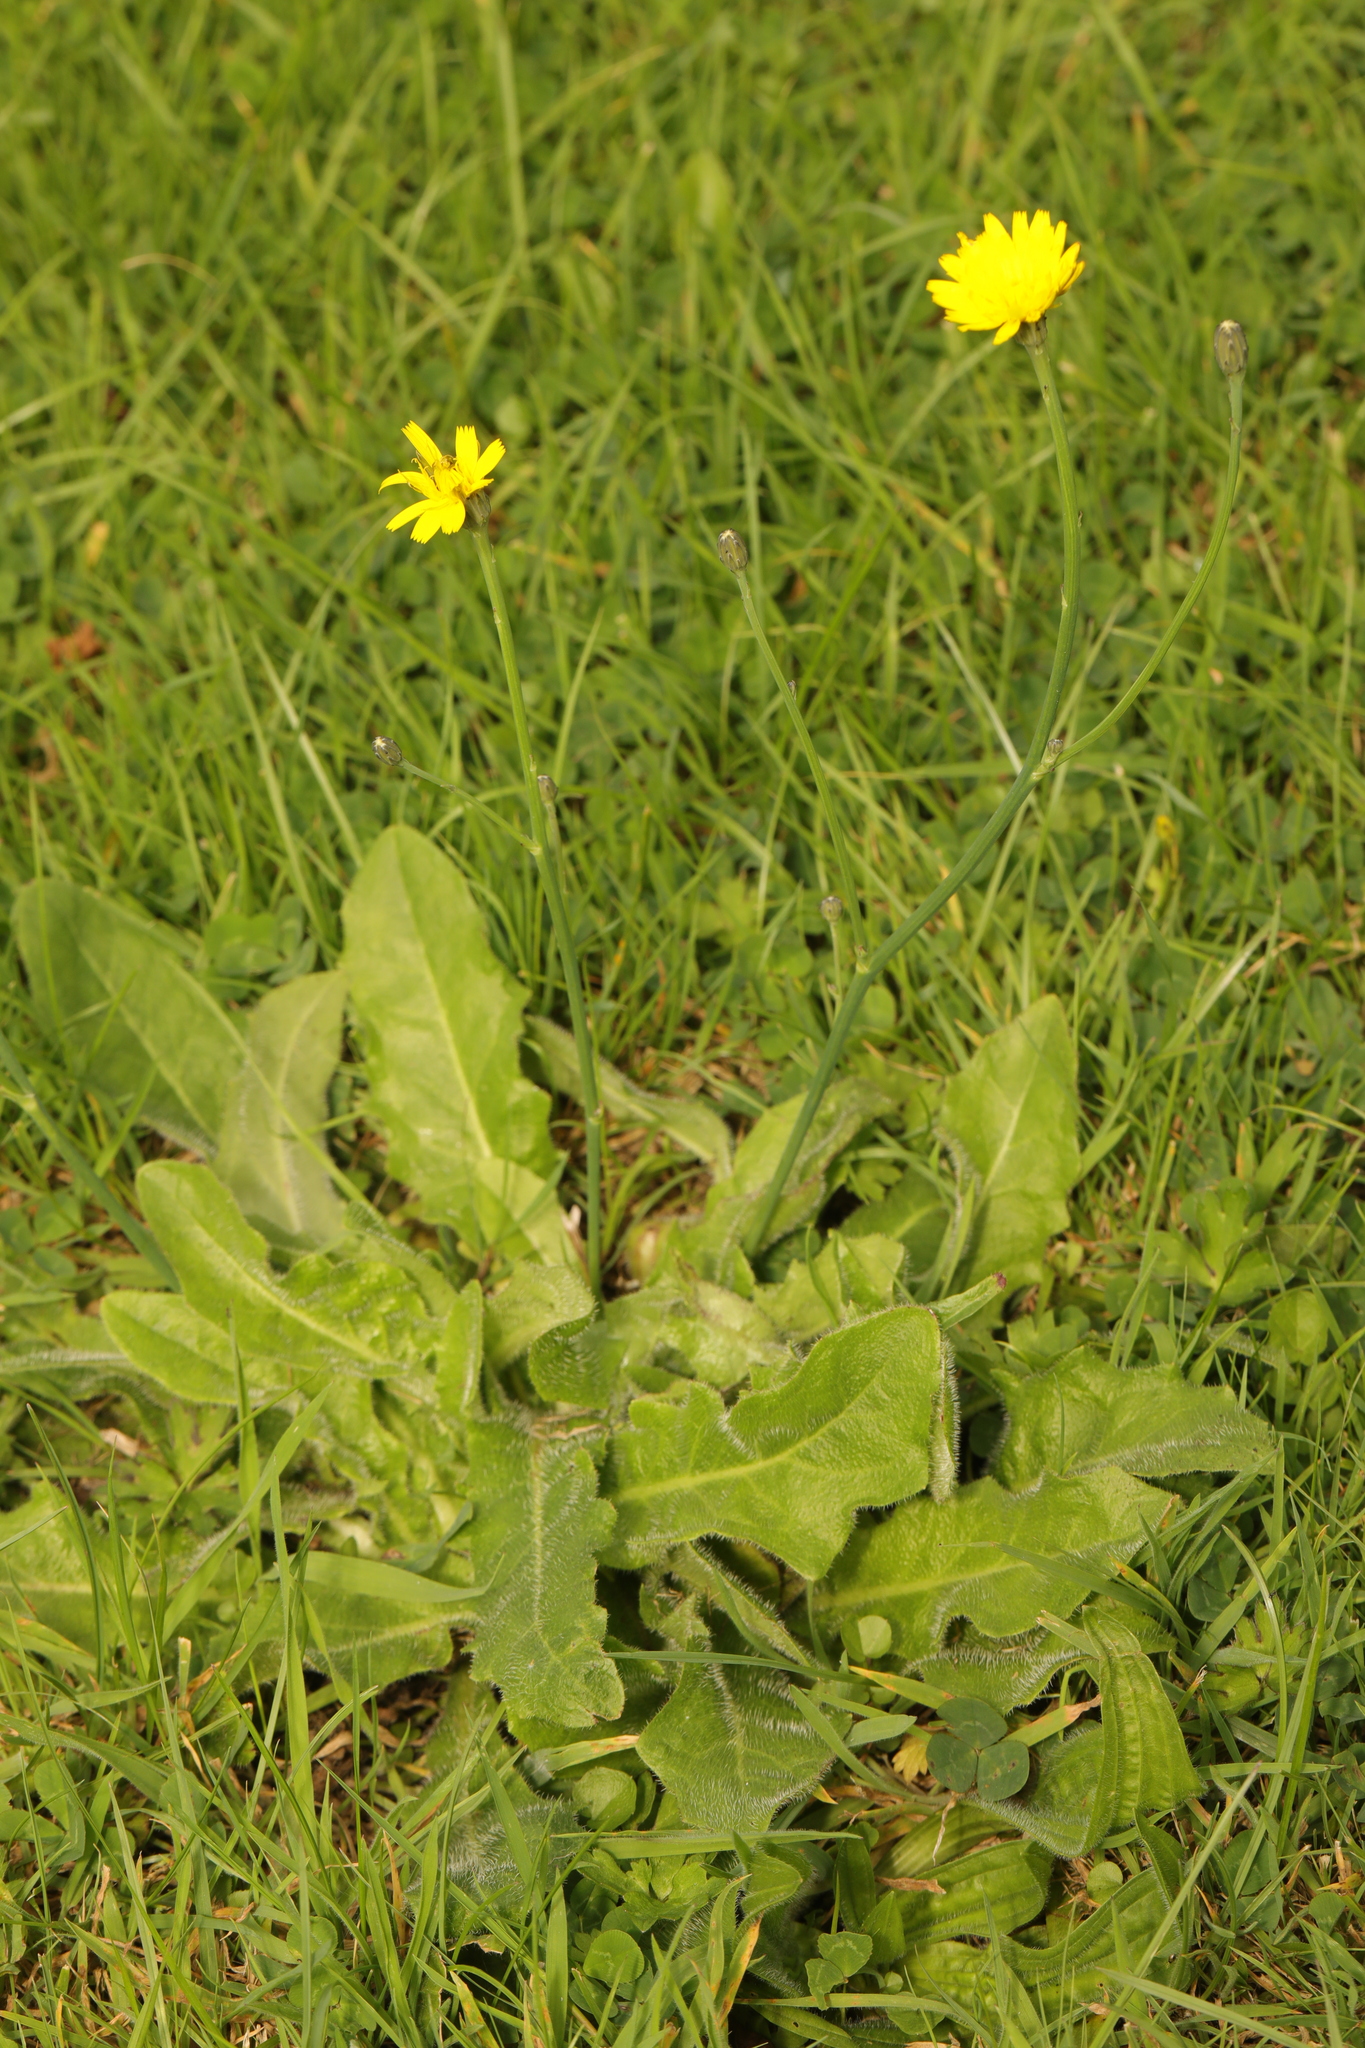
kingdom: Plantae
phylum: Tracheophyta
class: Magnoliopsida
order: Asterales
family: Asteraceae
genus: Hypochaeris
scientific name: Hypochaeris radicata
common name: Flatweed
